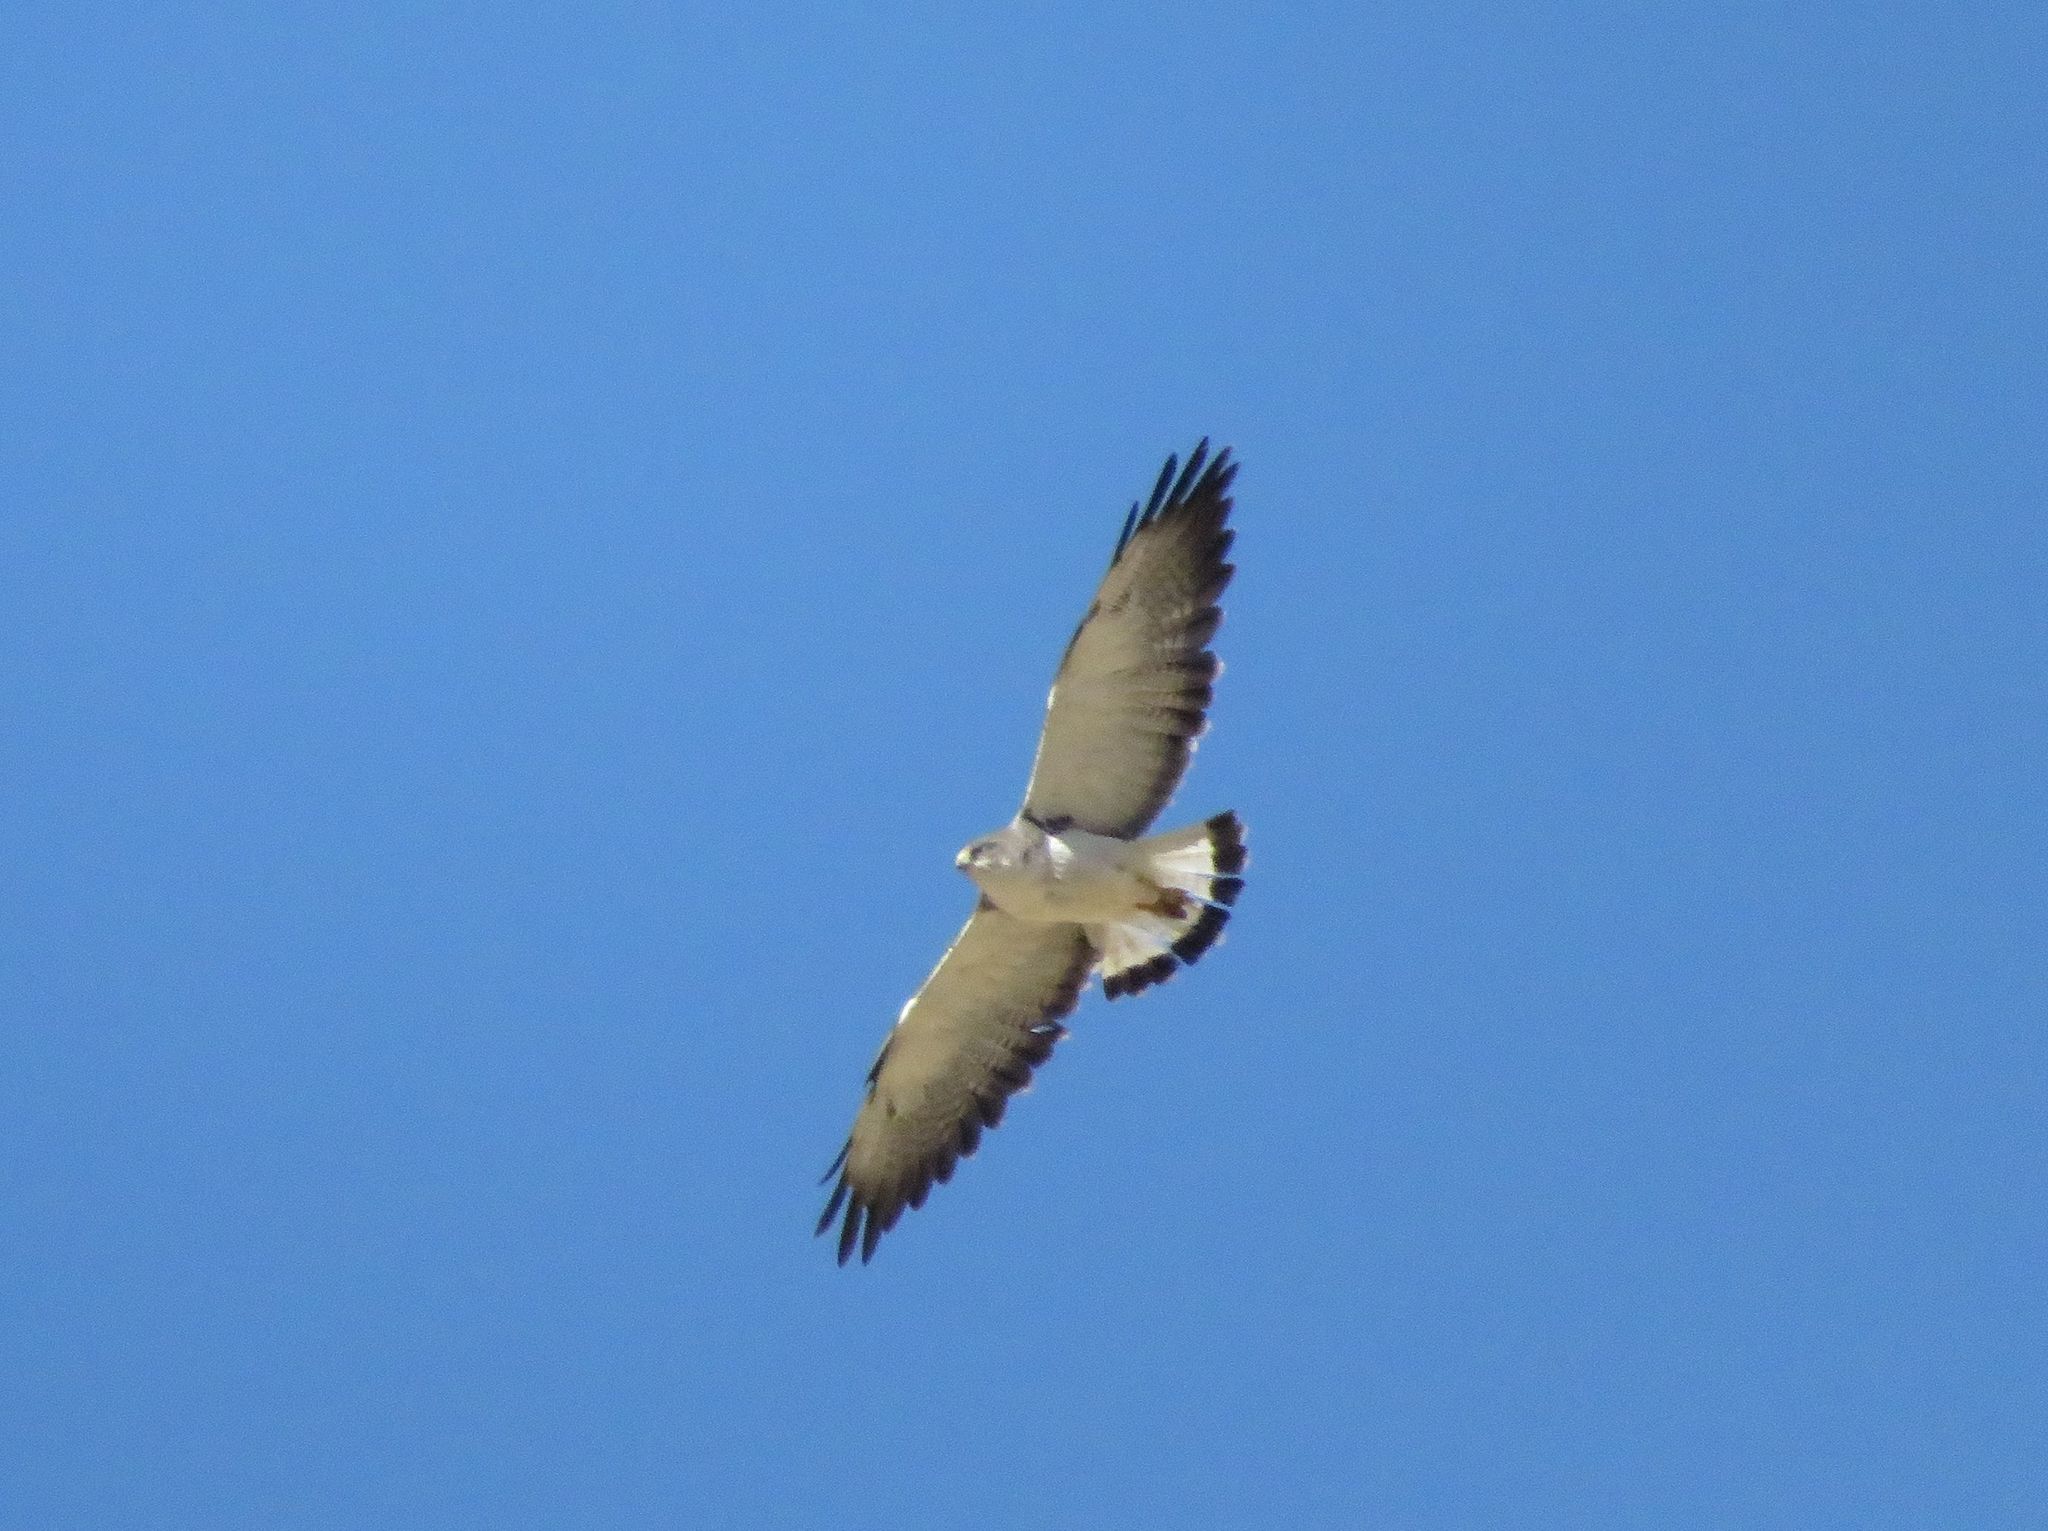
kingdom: Animalia
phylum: Chordata
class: Aves
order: Accipitriformes
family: Accipitridae
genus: Buteo
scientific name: Buteo polyosoma
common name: Variable hawk
